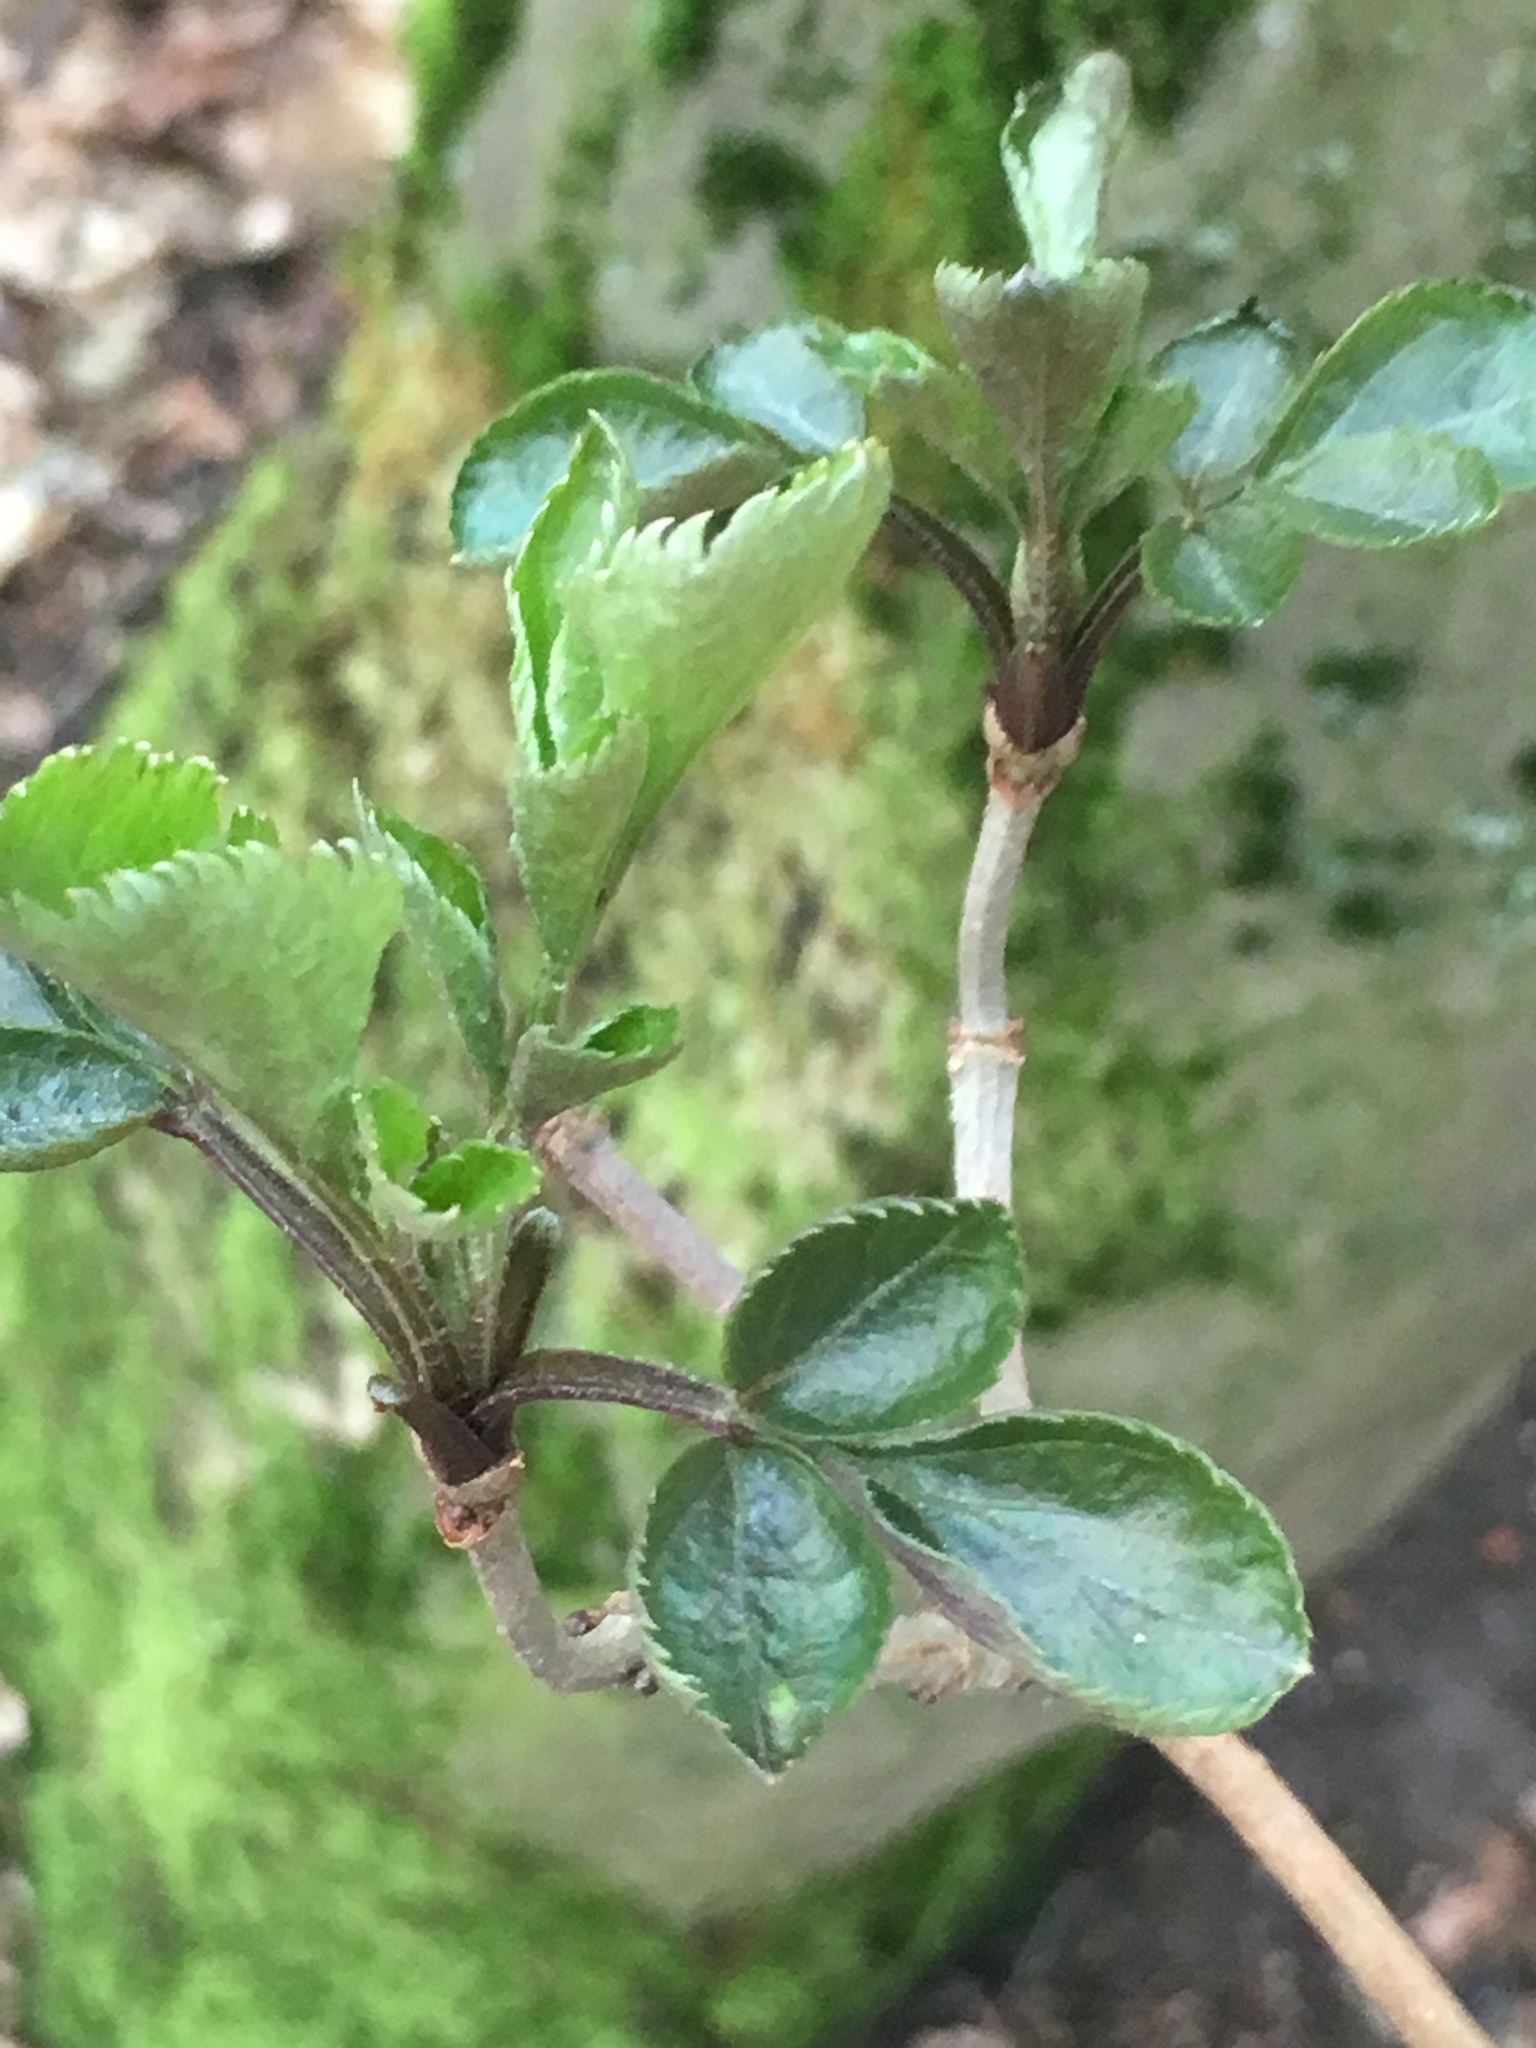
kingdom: Plantae
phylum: Tracheophyta
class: Magnoliopsida
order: Dipsacales
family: Viburnaceae
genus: Sambucus
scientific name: Sambucus nigra
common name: Elder
